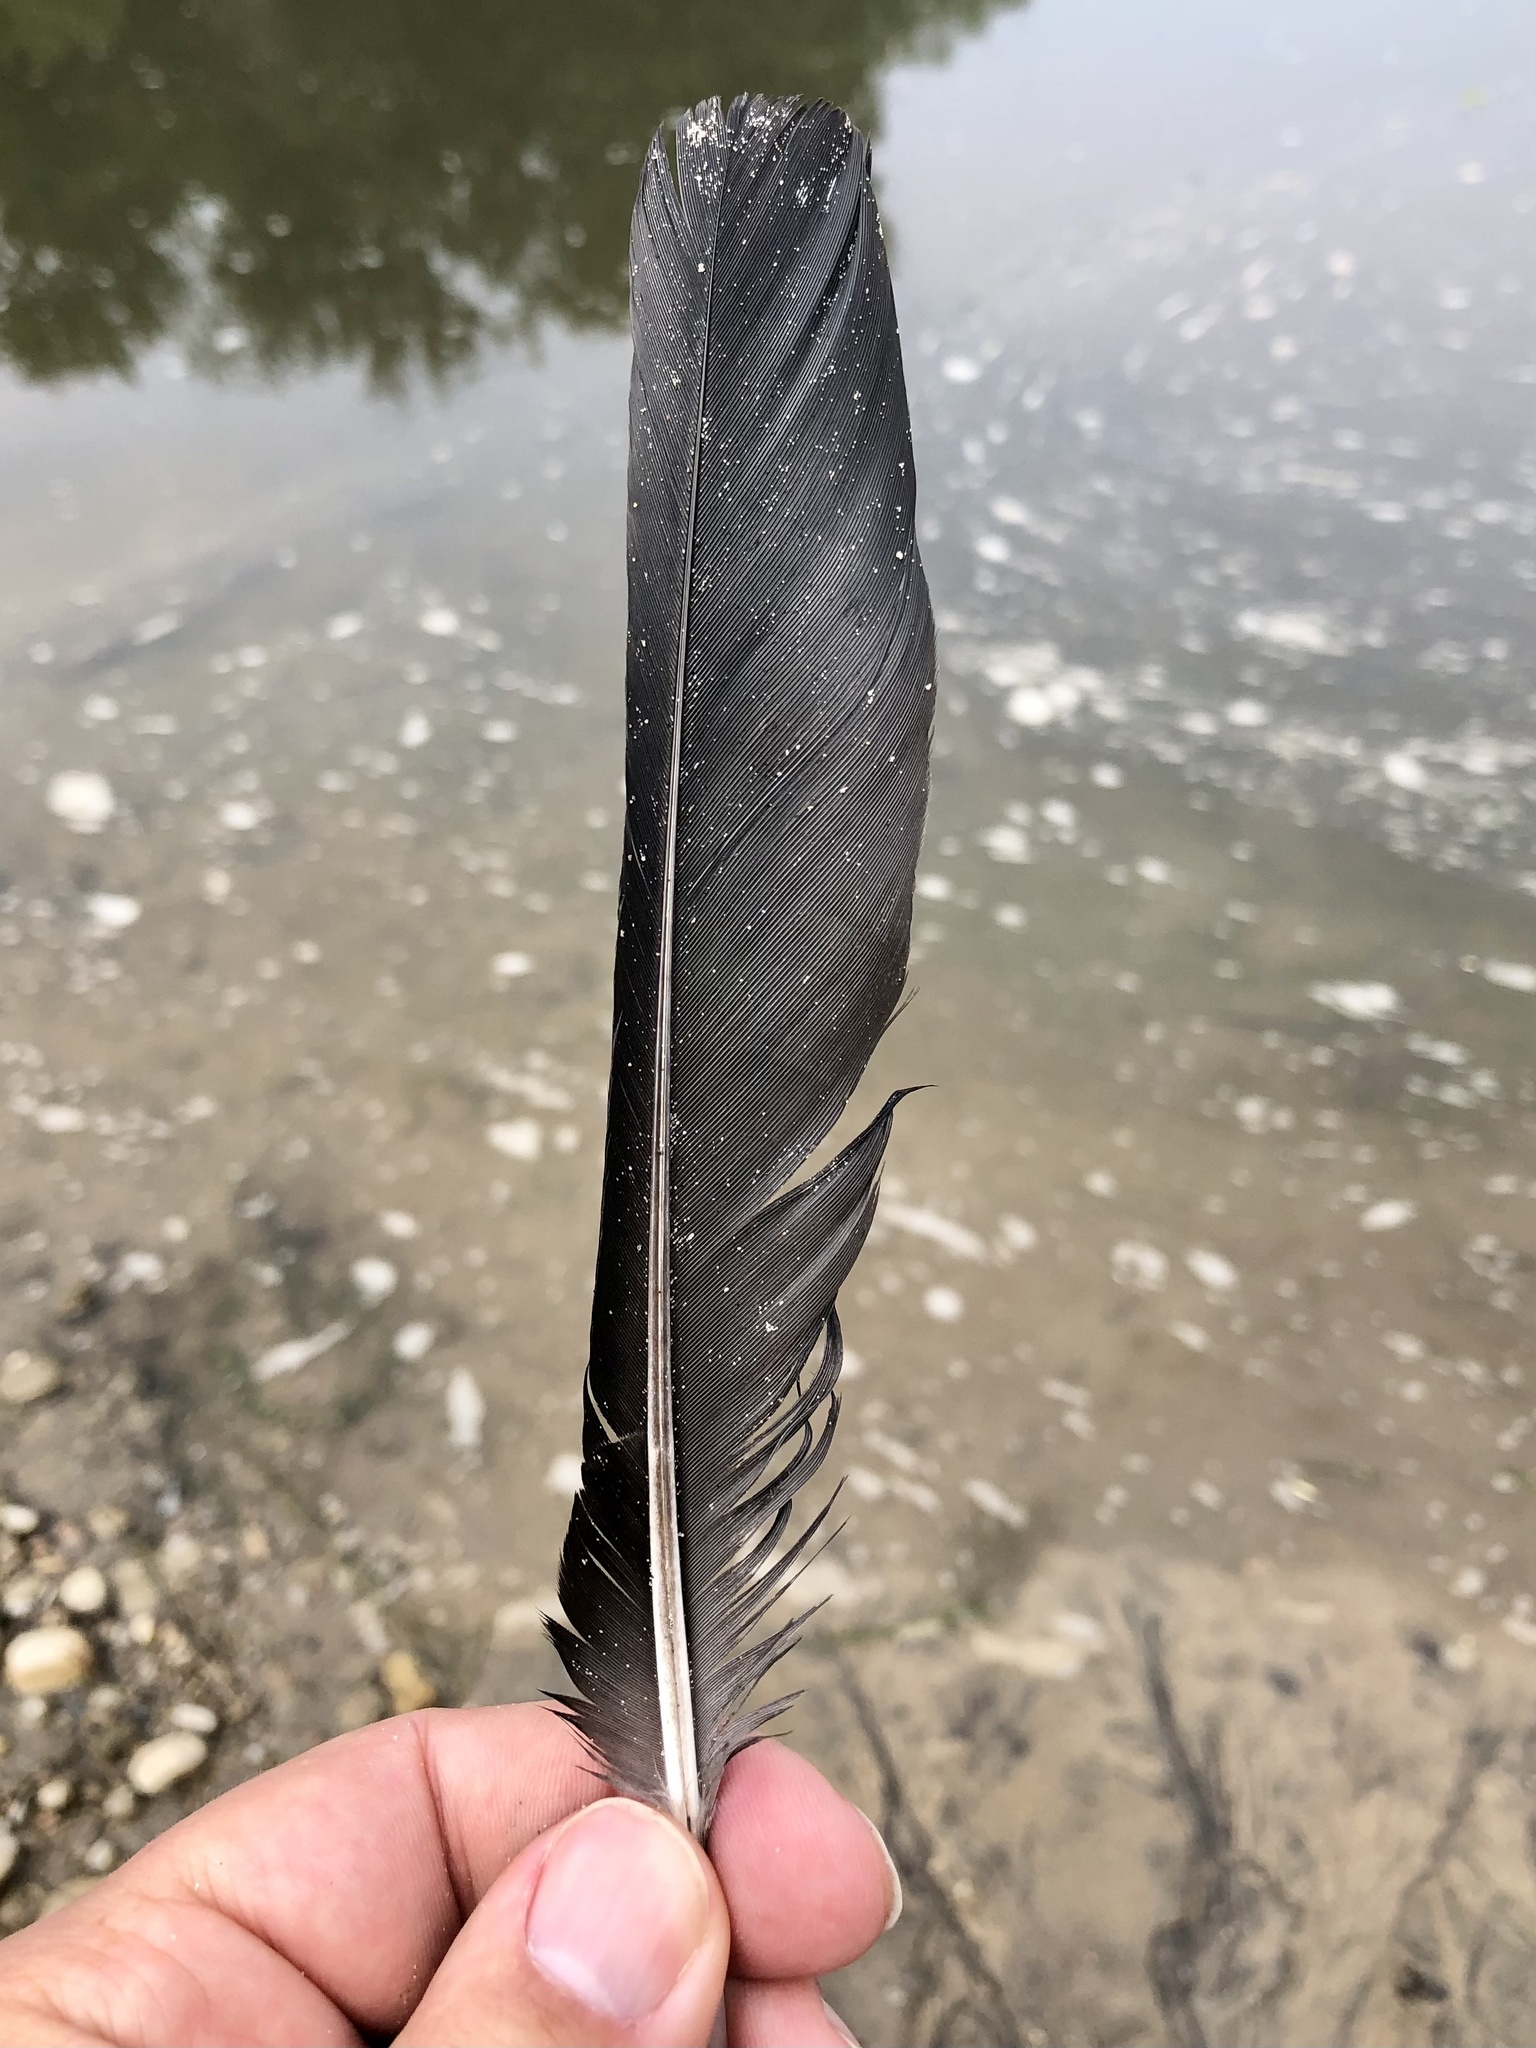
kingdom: Animalia
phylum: Chordata
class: Aves
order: Passeriformes
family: Corvidae
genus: Corvus
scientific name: Corvus brachyrhynchos
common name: American crow
